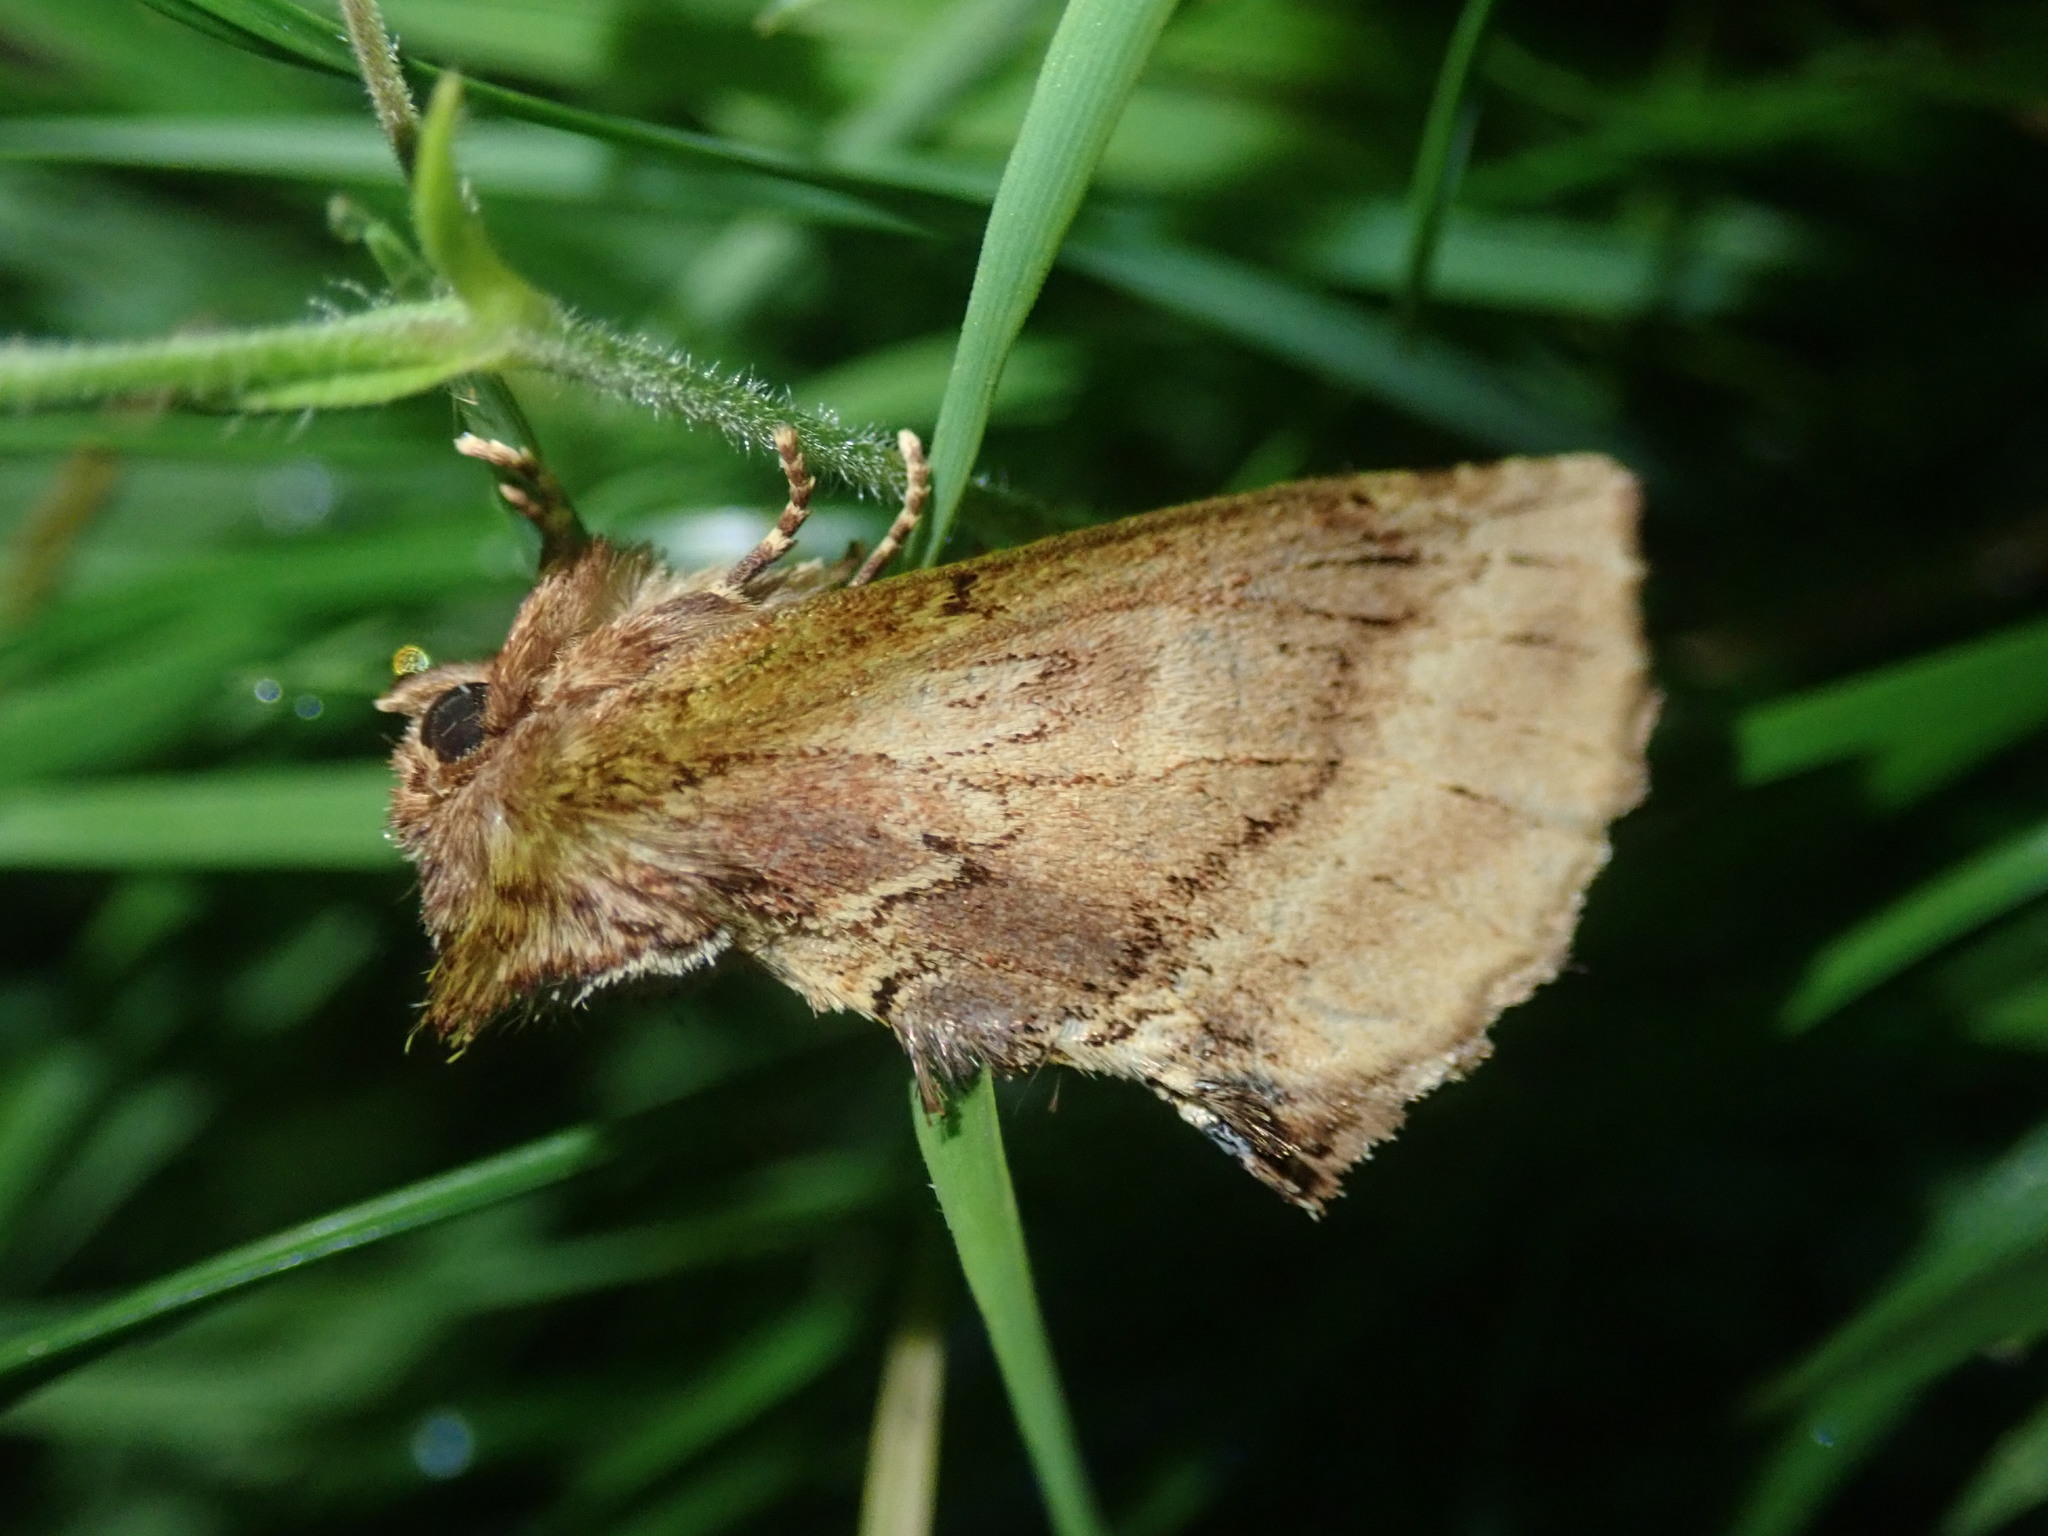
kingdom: Animalia
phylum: Arthropoda
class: Insecta
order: Lepidoptera
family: Notodontidae
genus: Ptilodon
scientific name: Ptilodon capucina
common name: Coxcomb prominent
